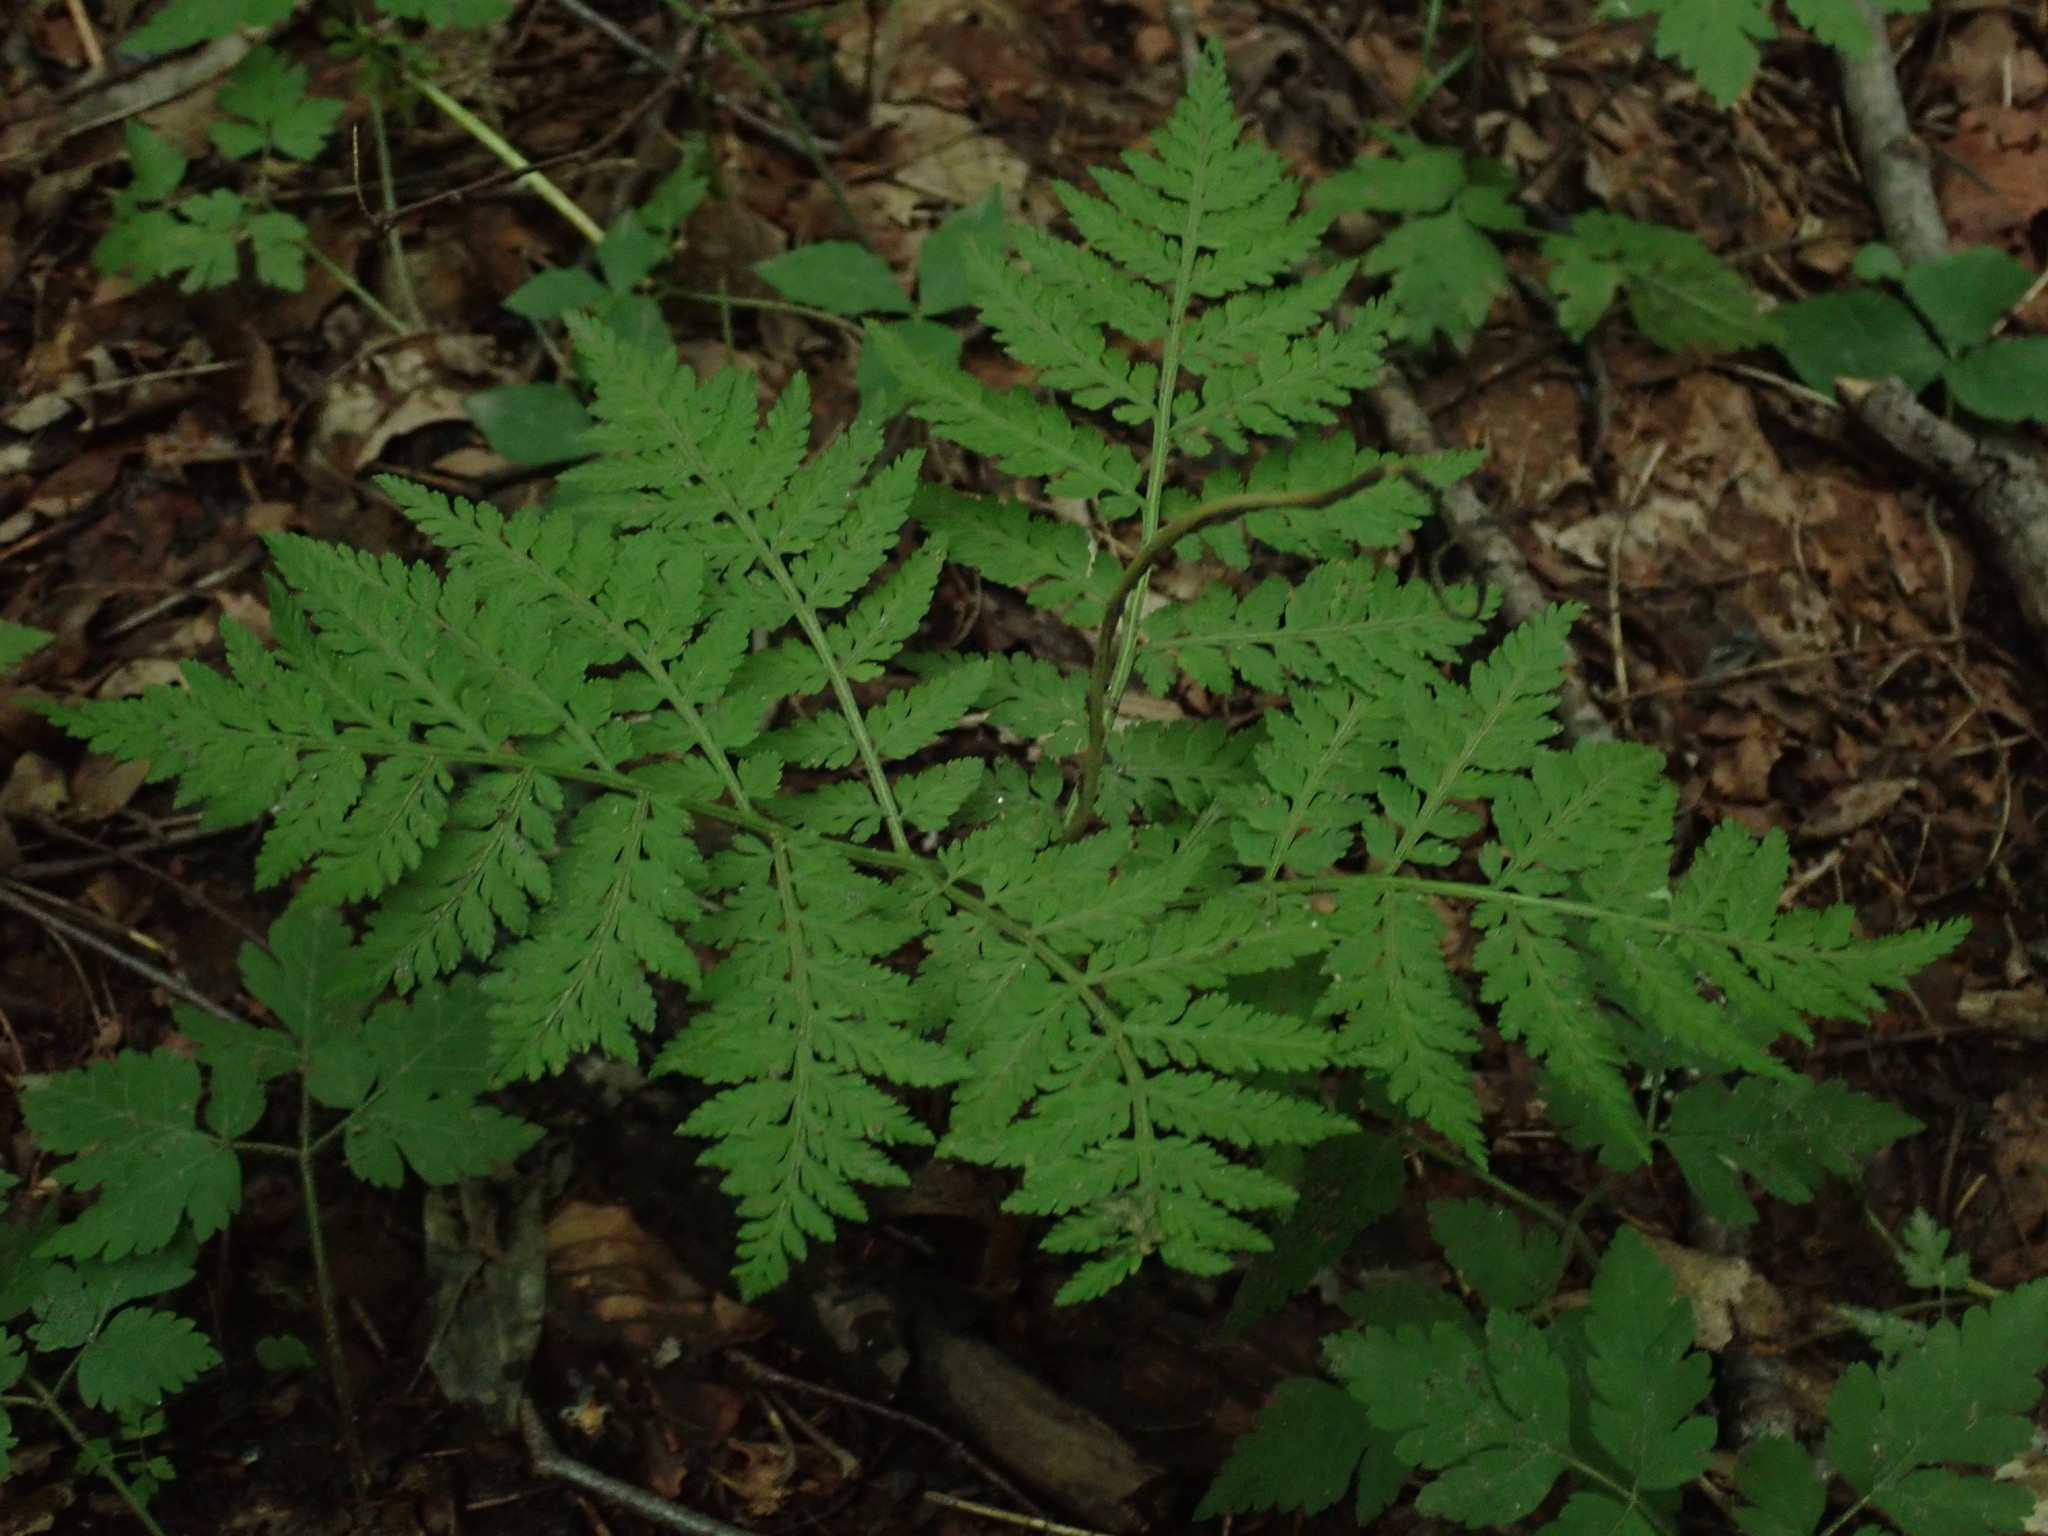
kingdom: Plantae
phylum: Tracheophyta
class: Polypodiopsida
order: Ophioglossales
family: Ophioglossaceae
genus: Botrypus
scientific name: Botrypus virginianus
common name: Common grapefern
